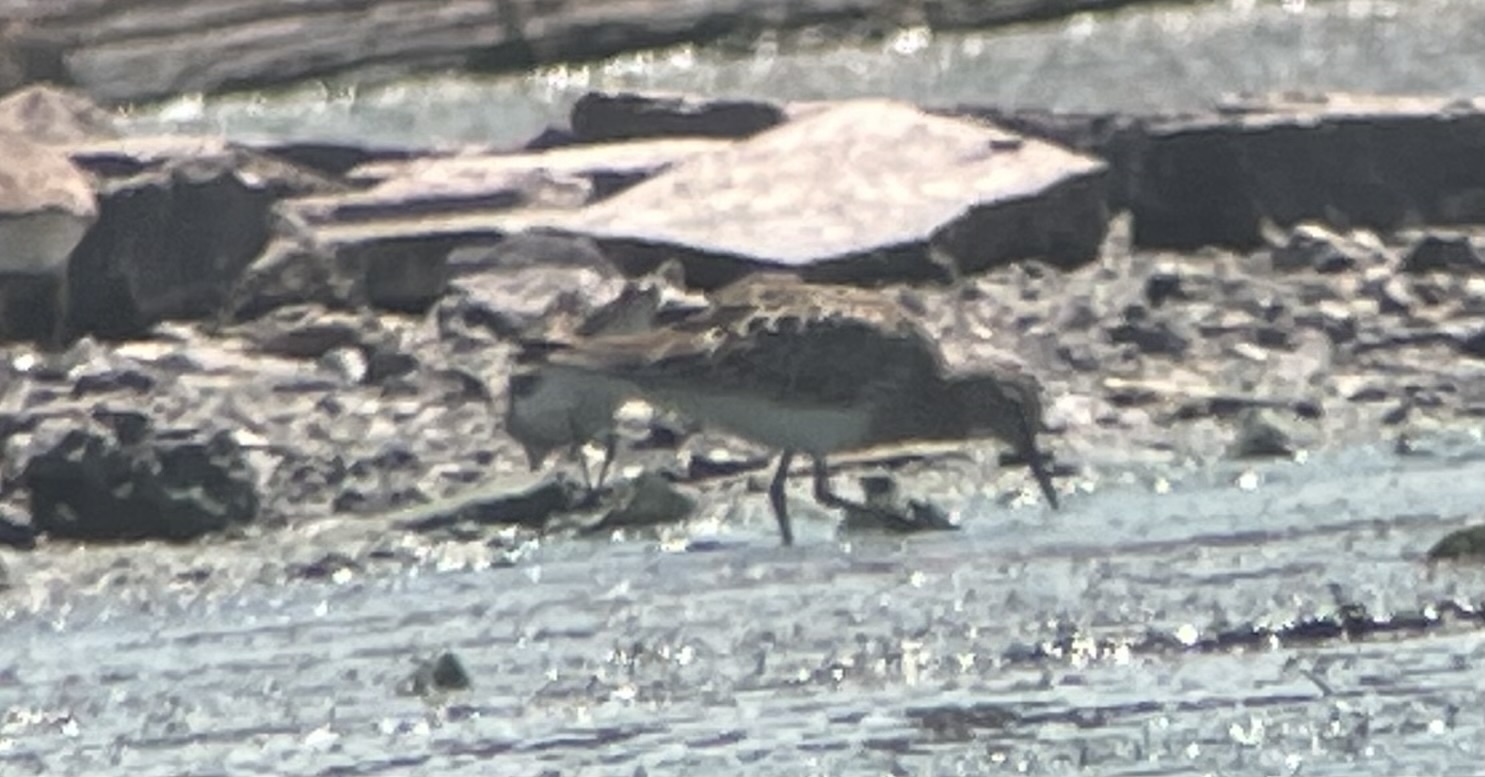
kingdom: Animalia
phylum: Chordata
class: Aves
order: Charadriiformes
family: Scolopacidae
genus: Calidris
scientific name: Calidris melanotos
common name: Pectoral sandpiper
